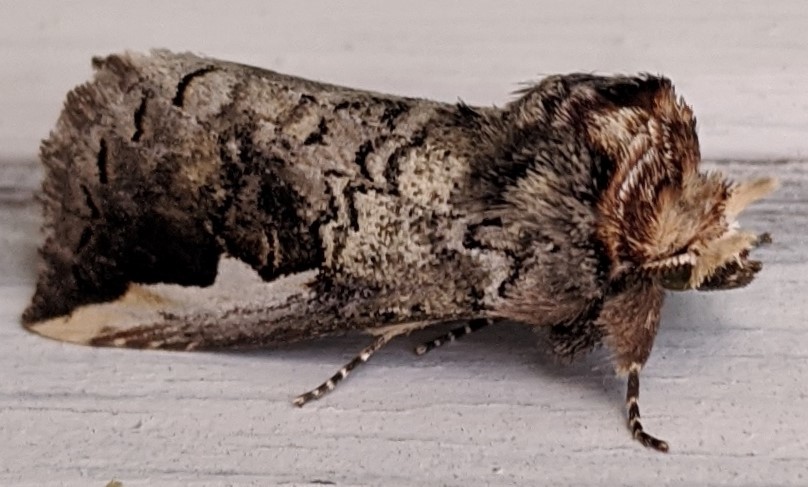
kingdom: Animalia
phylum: Arthropoda
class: Insecta
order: Lepidoptera
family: Notodontidae
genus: Symmerista
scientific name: Symmerista albifrons
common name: White-headed prominent
